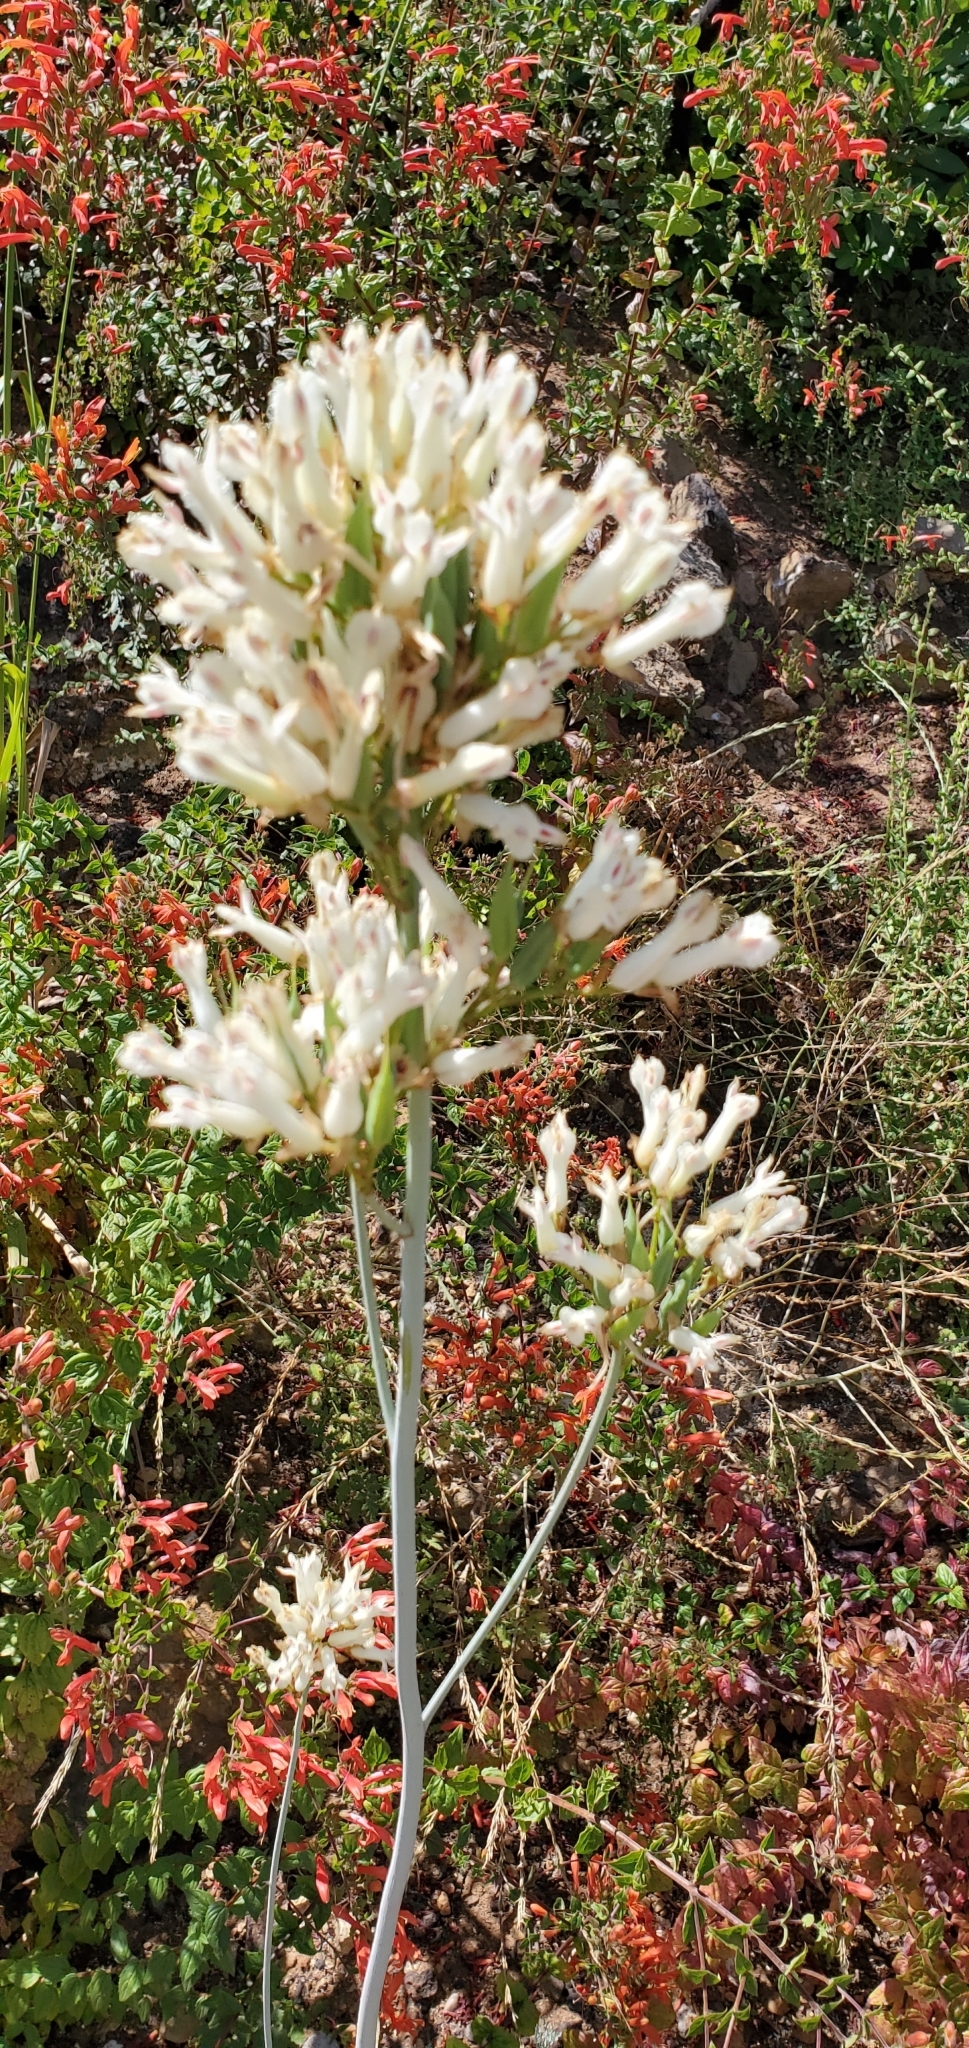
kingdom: Plantae
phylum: Tracheophyta
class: Magnoliopsida
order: Ranunculales
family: Papaveraceae
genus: Ehrendorferia
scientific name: Ehrendorferia ochroleuca
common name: White eardrops
